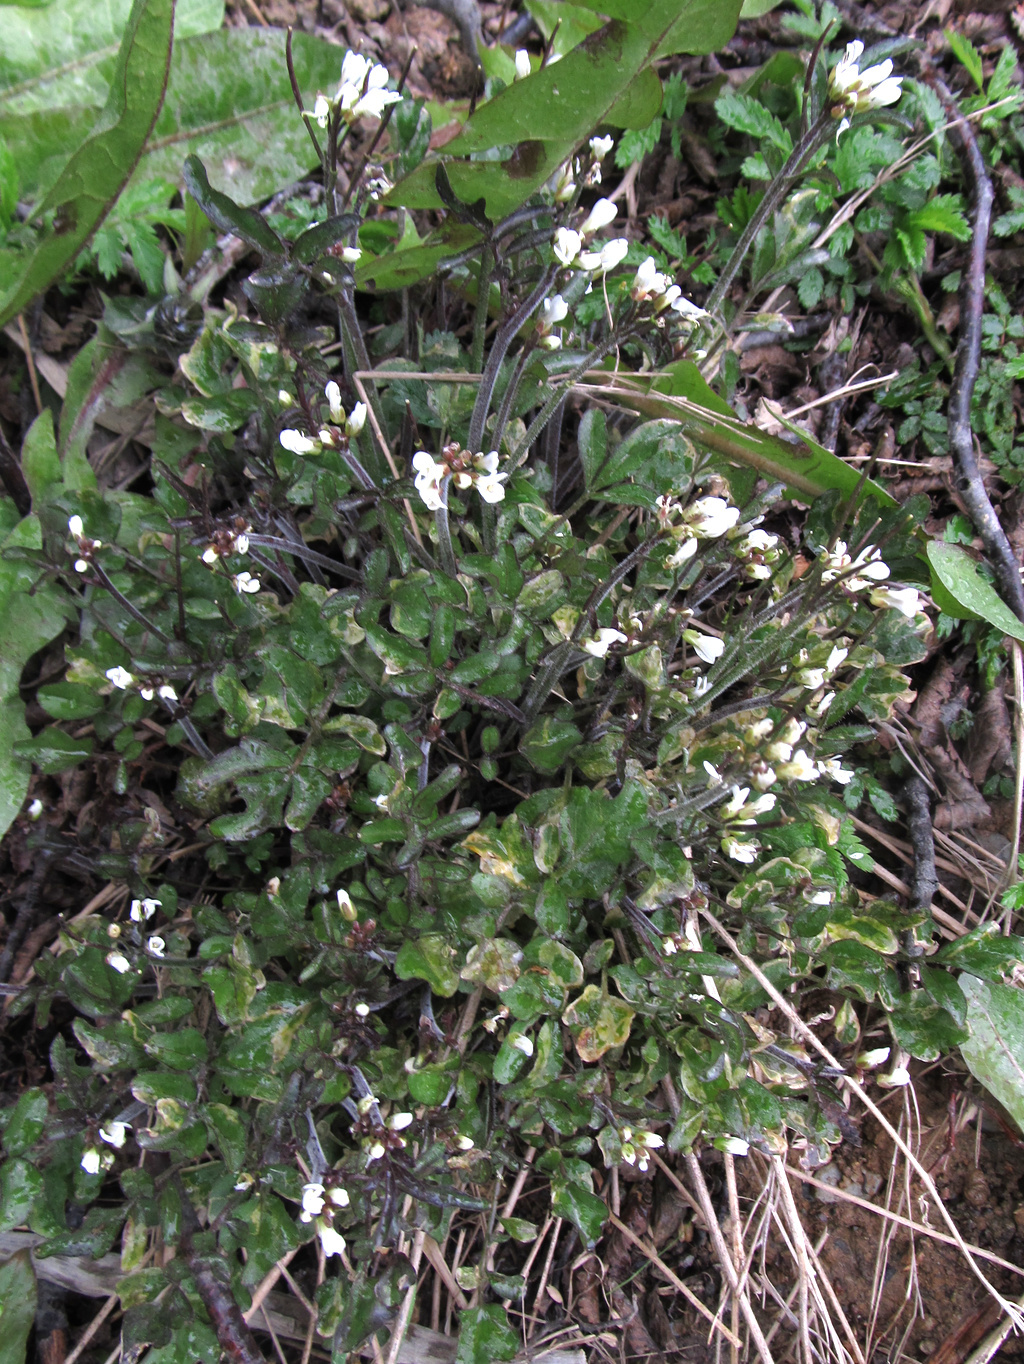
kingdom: Plantae
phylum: Tracheophyta
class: Magnoliopsida
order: Brassicales
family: Brassicaceae
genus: Cardamine
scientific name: Cardamine glacialis
